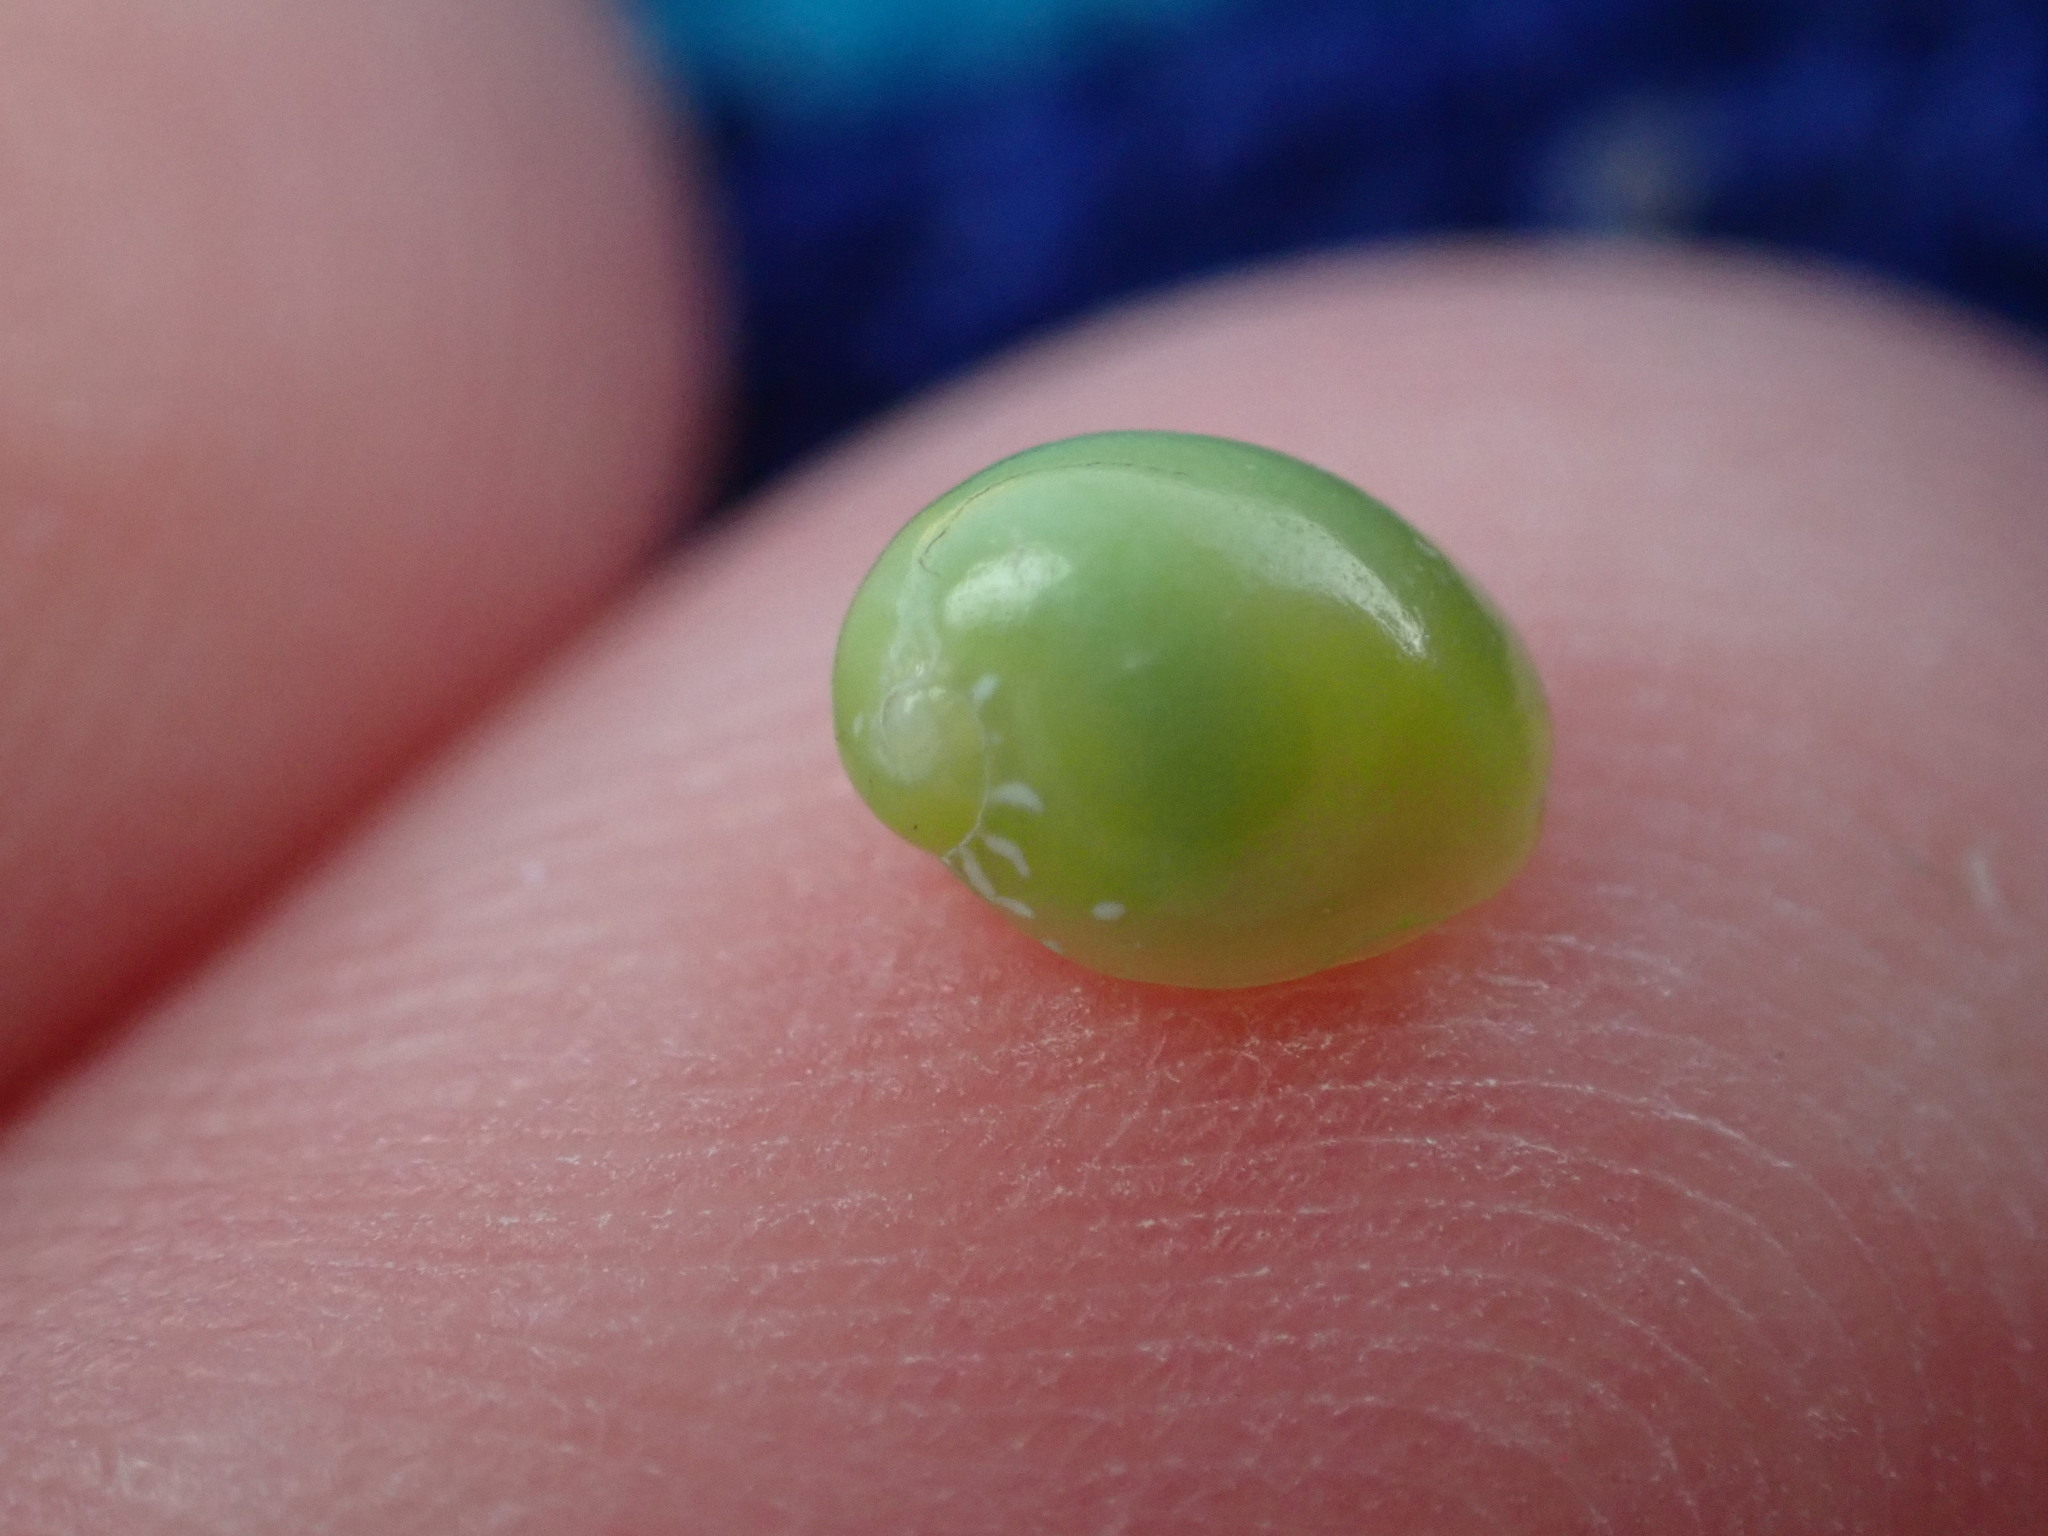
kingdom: Animalia
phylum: Mollusca
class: Gastropoda
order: Cycloneritida
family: Neritidae
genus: Smaragdia
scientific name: Smaragdia viridis
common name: Emerald nerite
